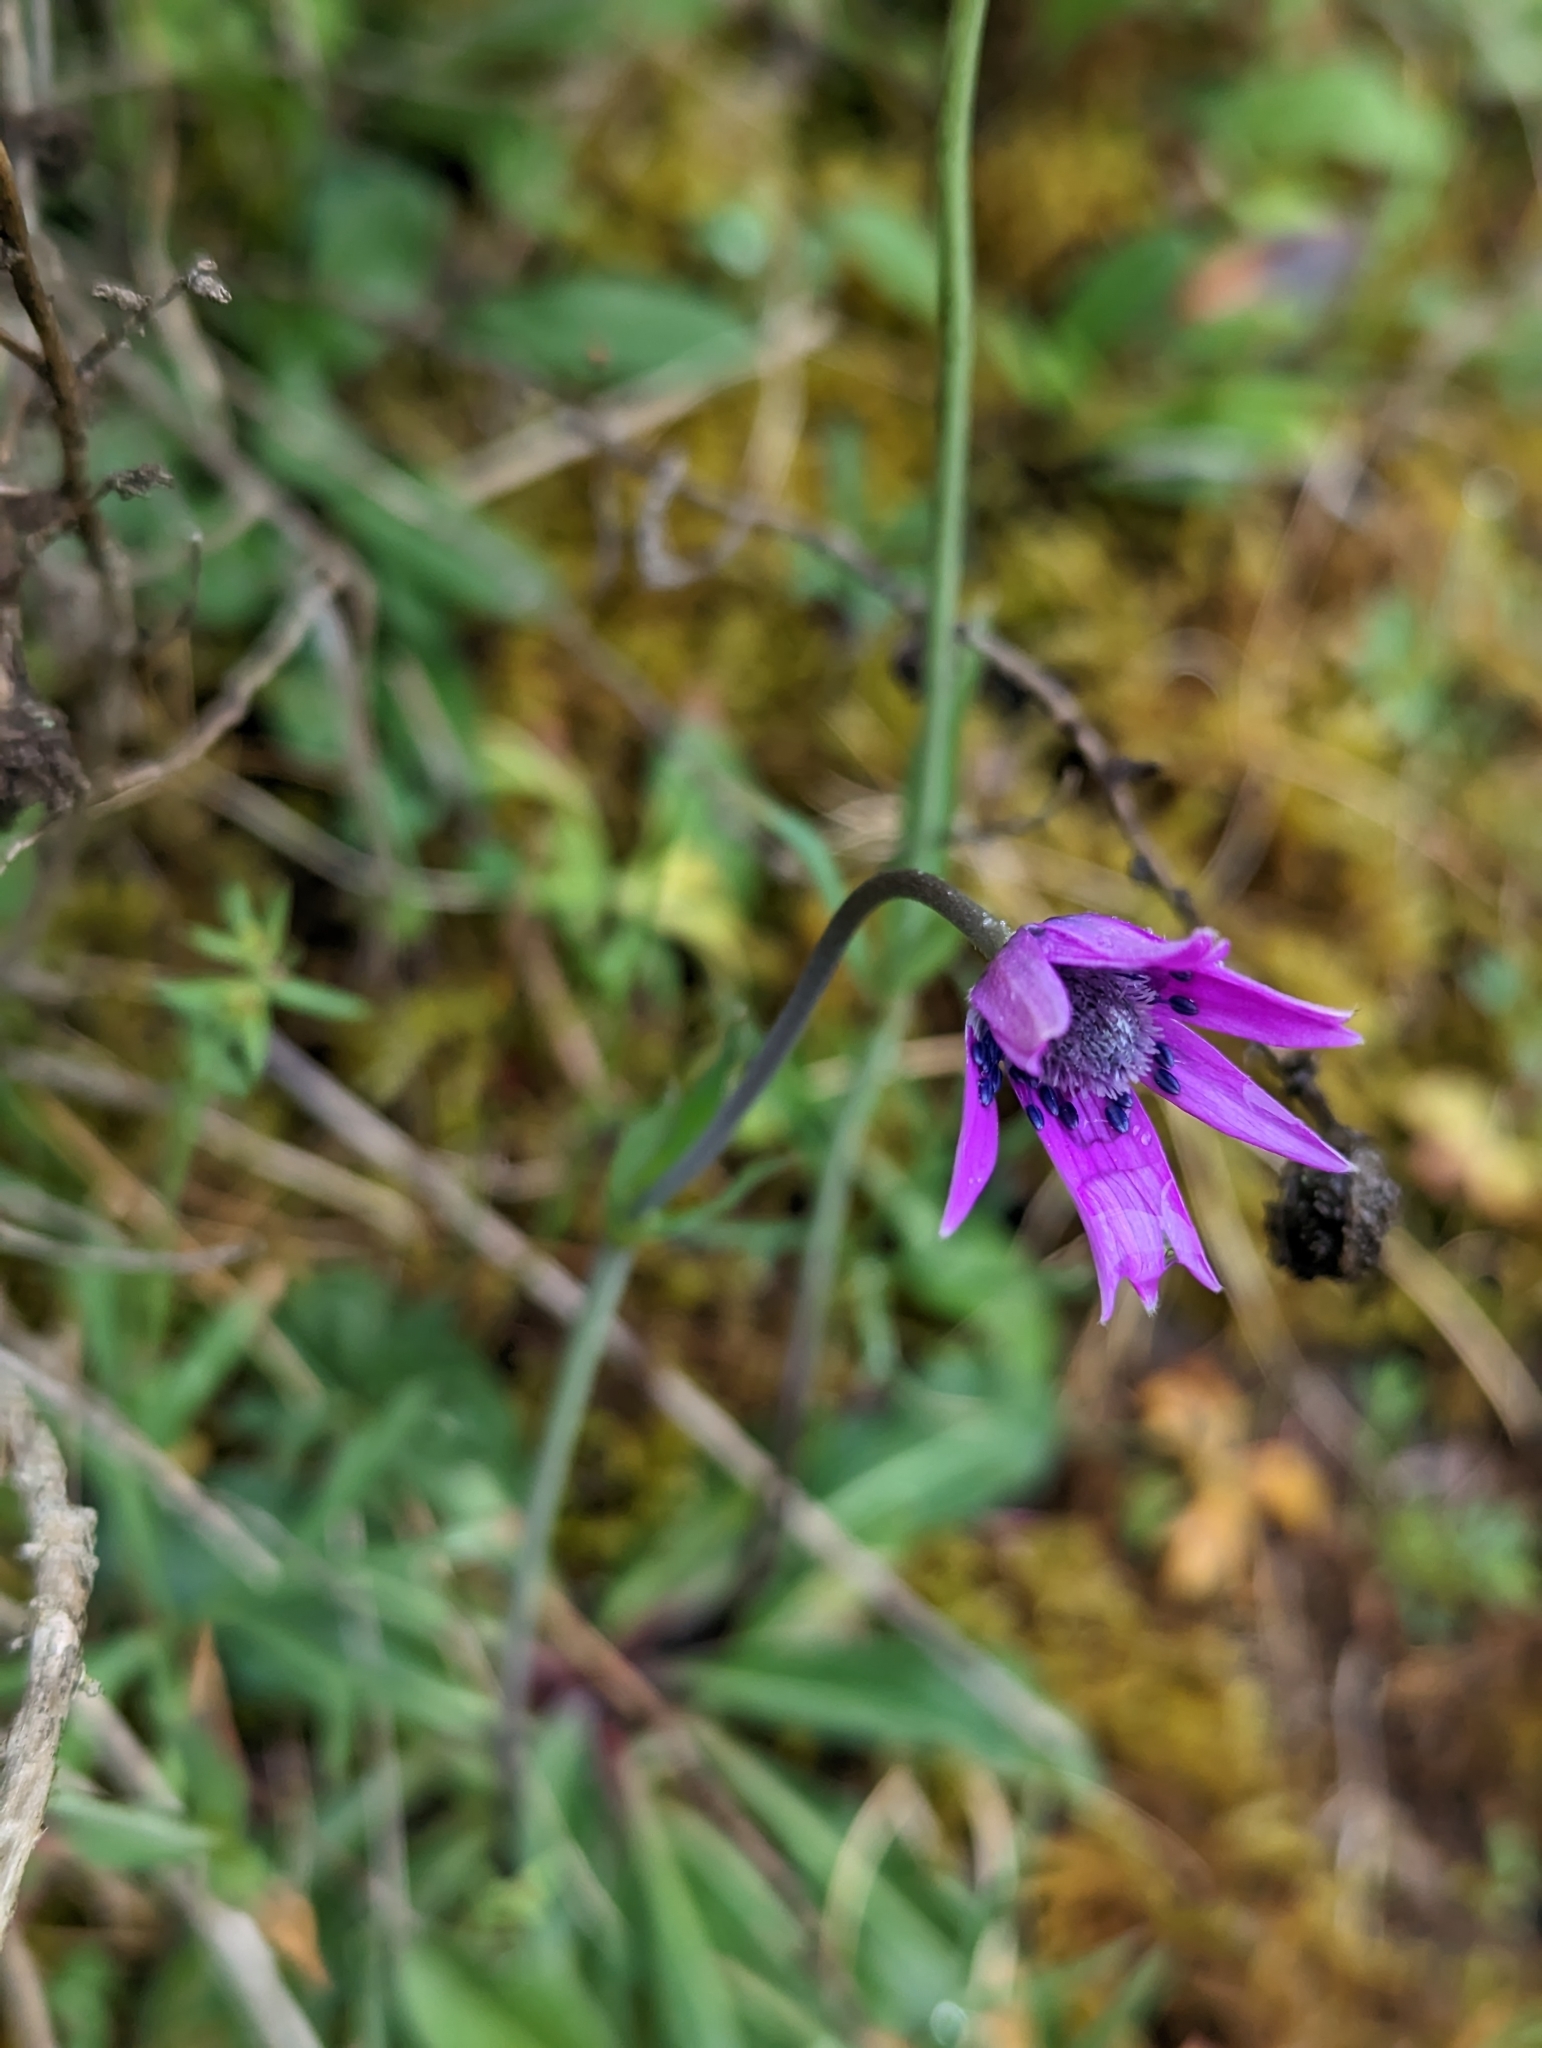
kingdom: Plantae
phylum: Tracheophyta
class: Magnoliopsida
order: Ranunculales
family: Ranunculaceae
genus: Anemone
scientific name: Anemone hortensis
